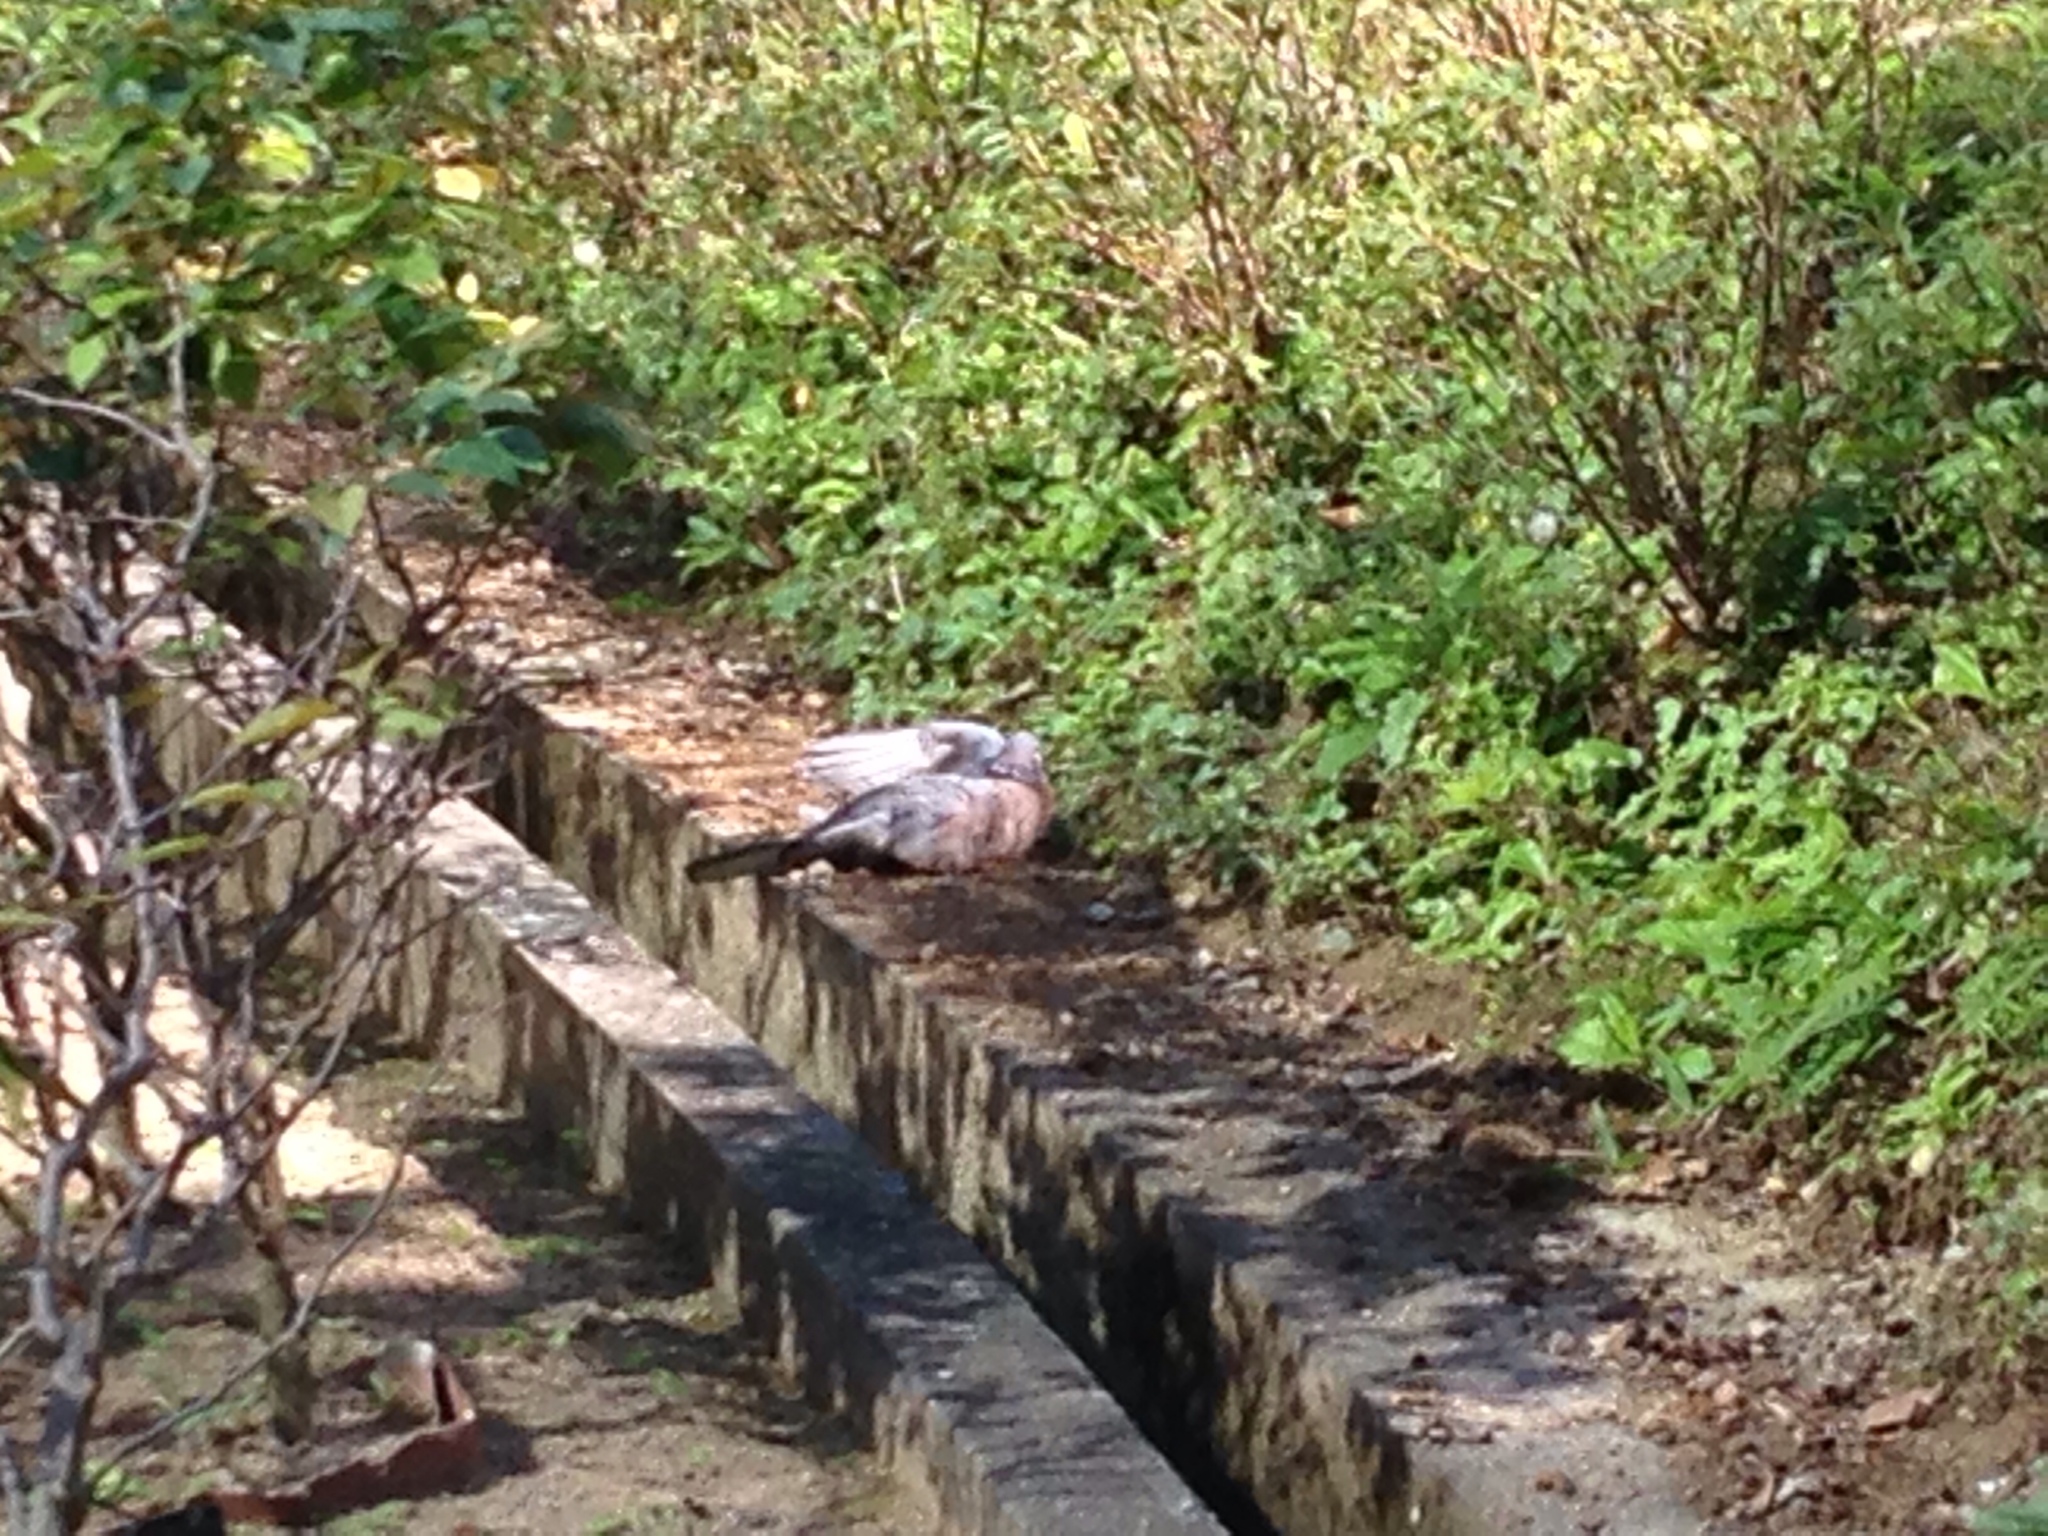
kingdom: Animalia
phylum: Chordata
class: Aves
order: Columbiformes
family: Columbidae
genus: Spilopelia
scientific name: Spilopelia chinensis
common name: Spotted dove
